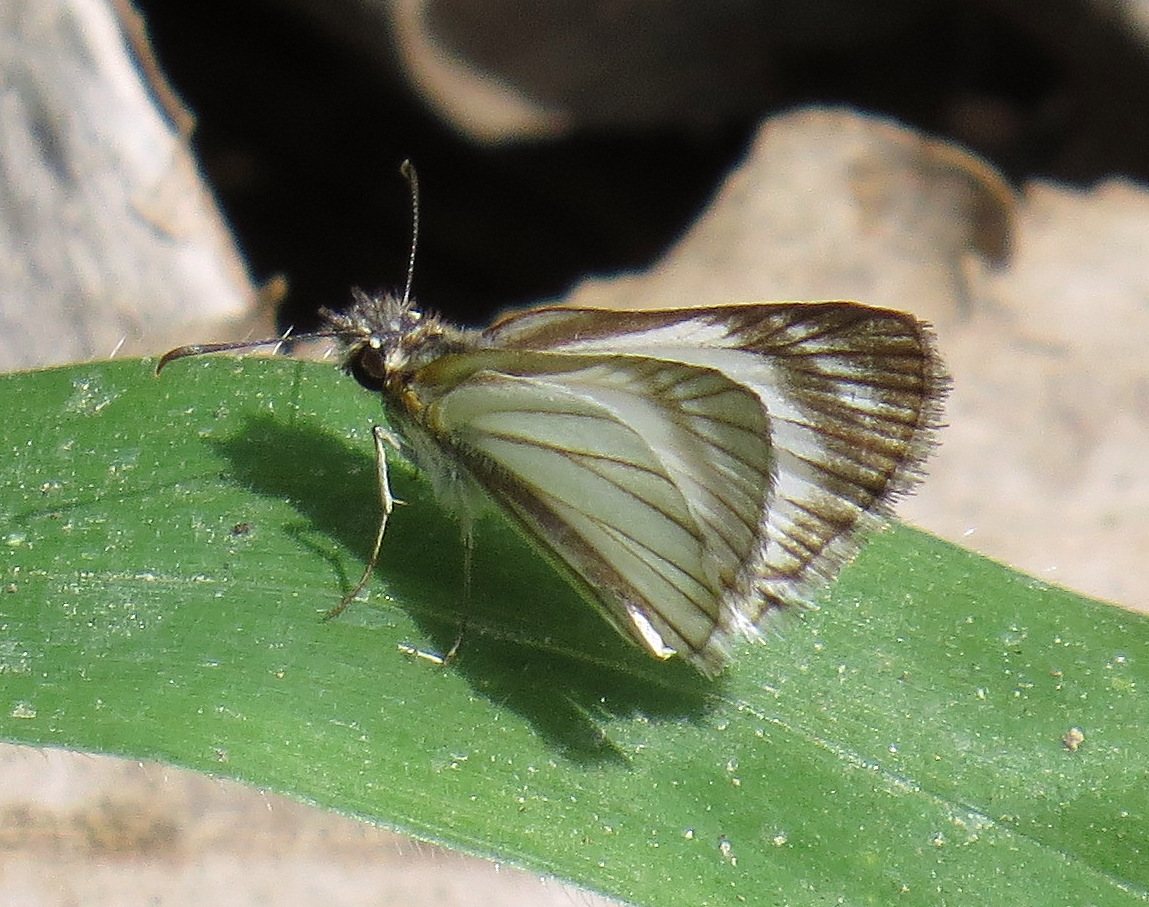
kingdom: Animalia
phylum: Arthropoda
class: Insecta
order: Lepidoptera
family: Hesperiidae
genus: Heliopetes
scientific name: Heliopetes arsalte
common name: Veined white-skipper
